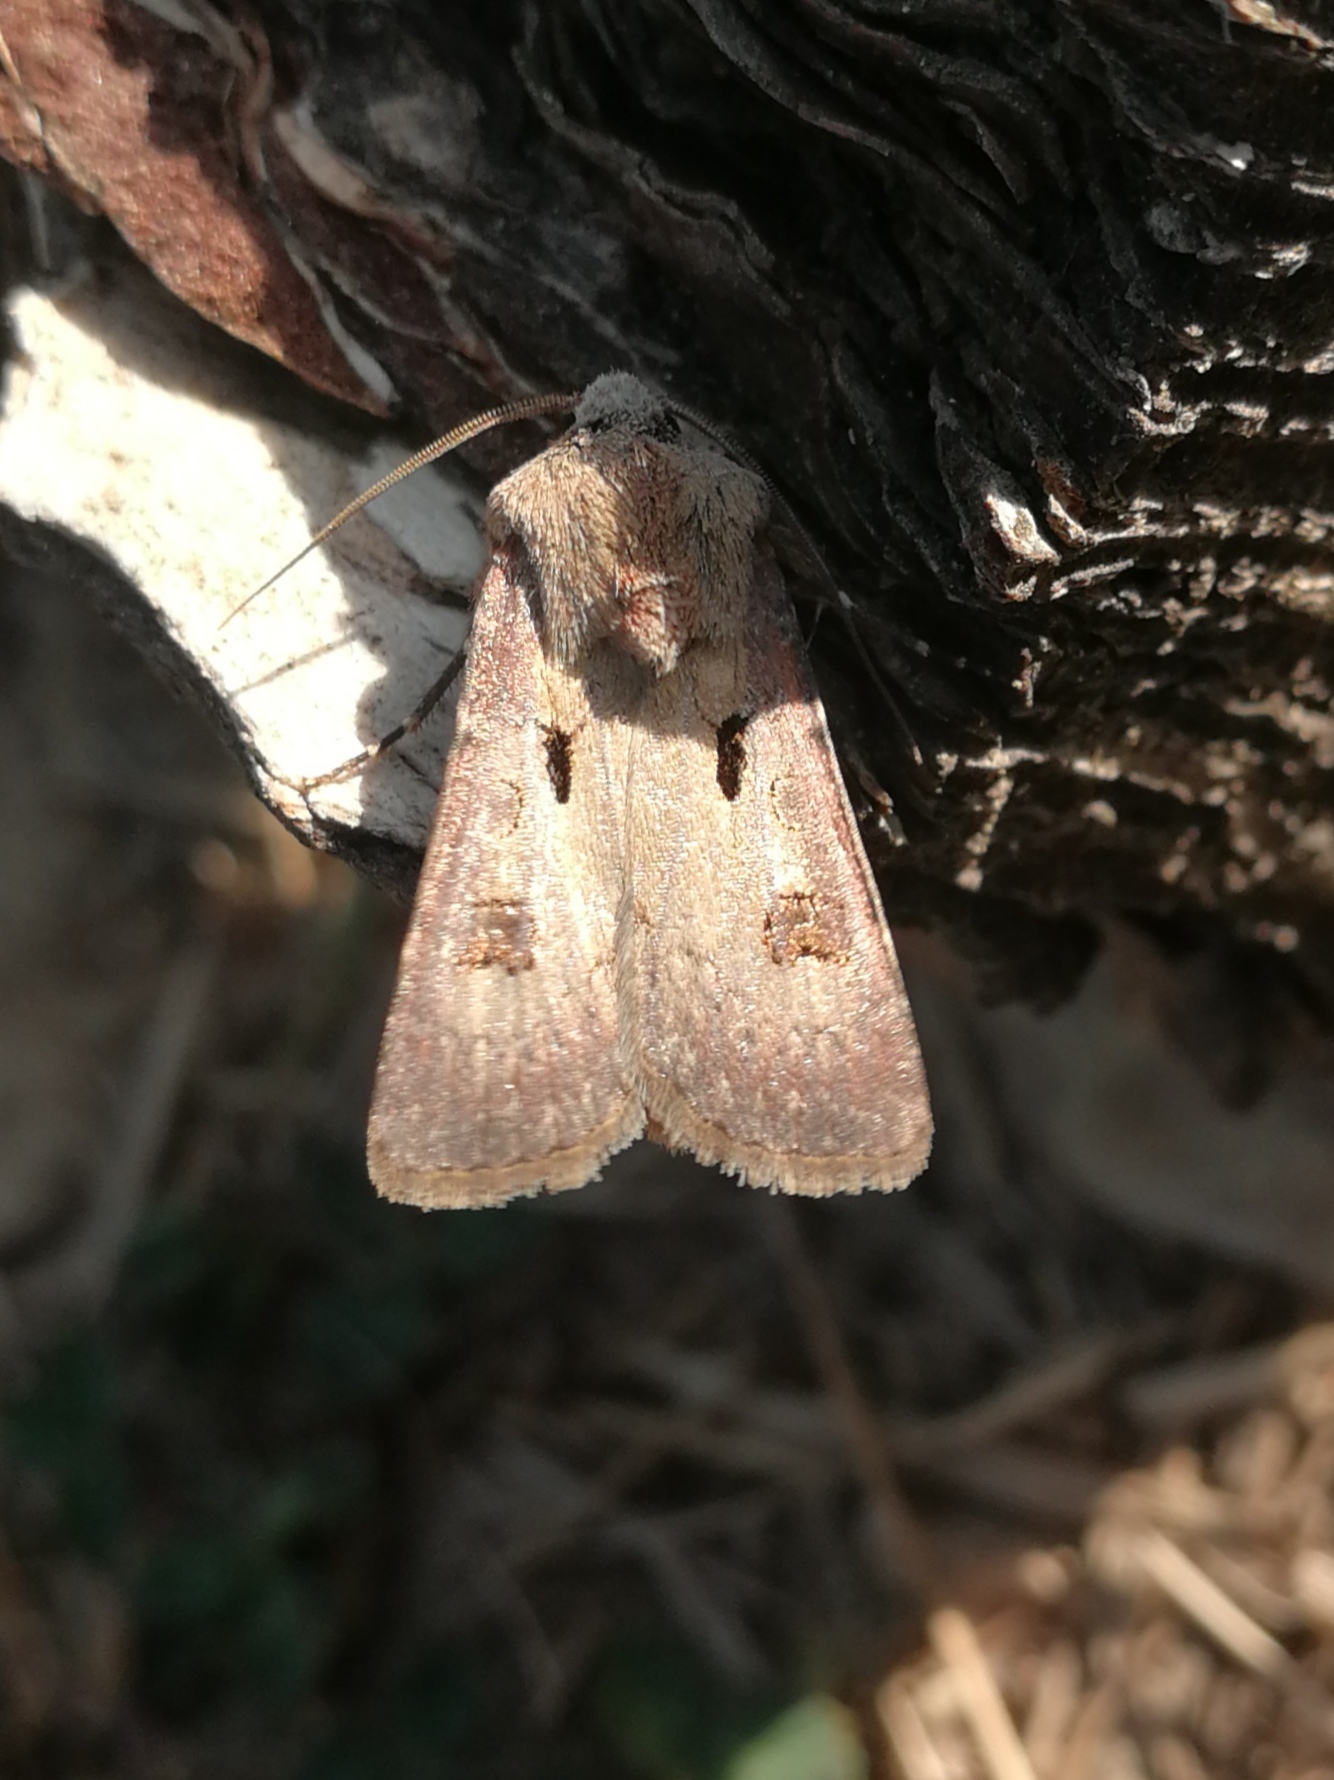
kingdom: Animalia
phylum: Arthropoda
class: Insecta
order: Lepidoptera
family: Noctuidae
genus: Agrotis
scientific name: Agrotis exclamationis
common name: Heart and dart
